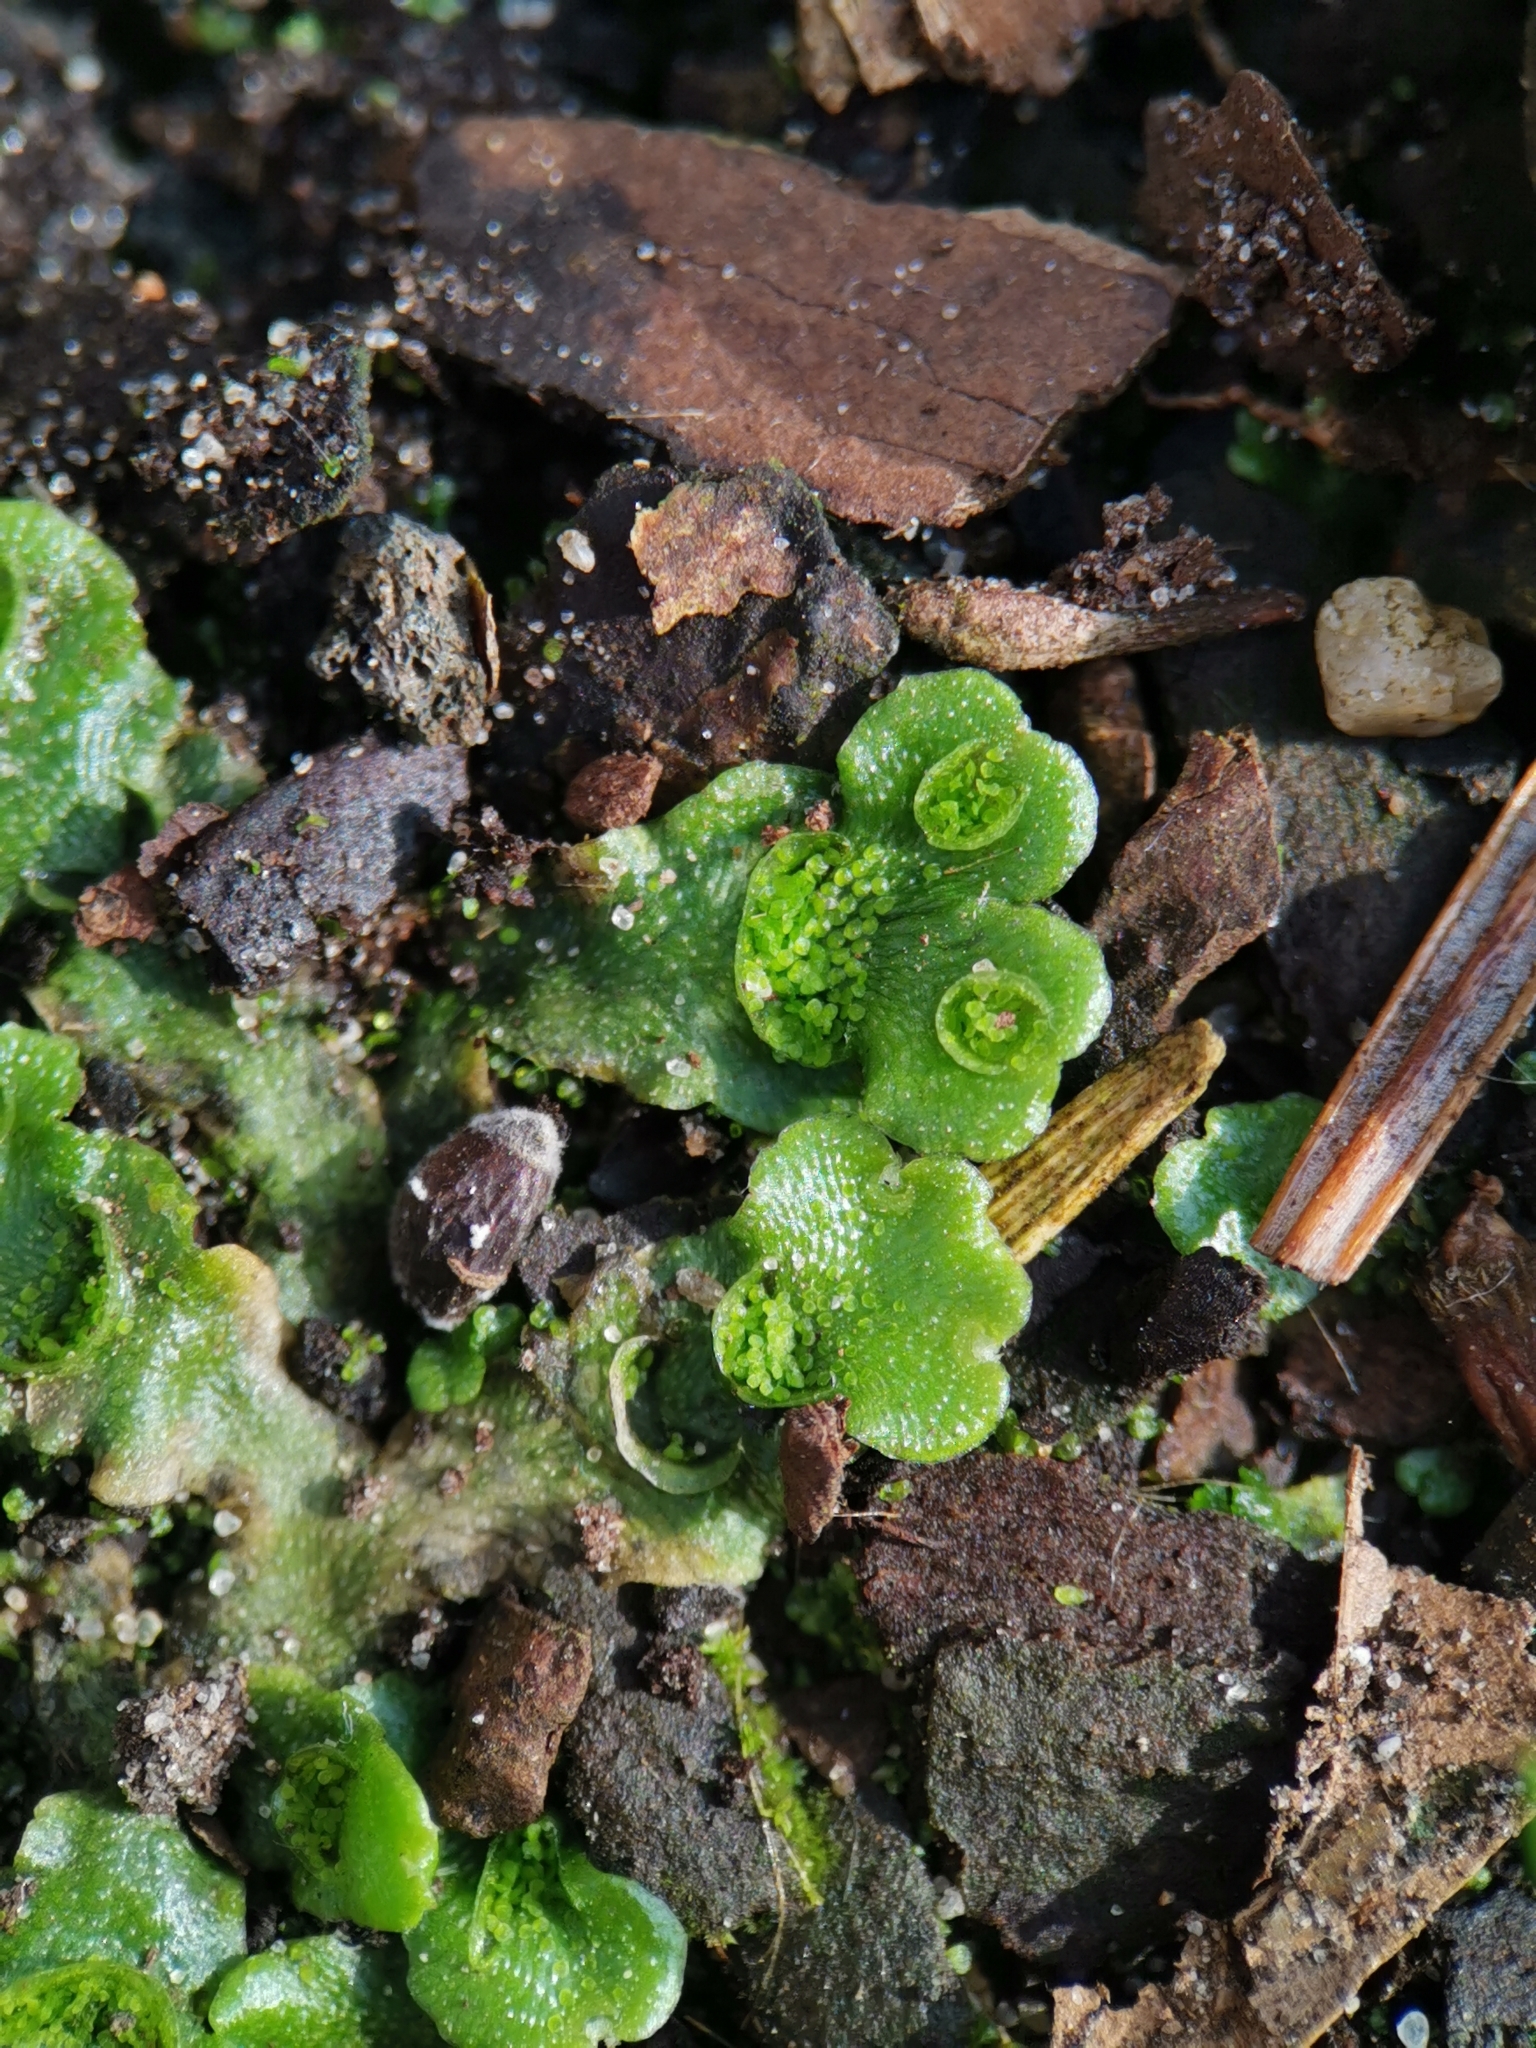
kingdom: Plantae
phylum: Marchantiophyta
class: Marchantiopsida
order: Lunulariales
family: Lunulariaceae
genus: Lunularia
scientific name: Lunularia cruciata
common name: Crescent-cup liverwort
